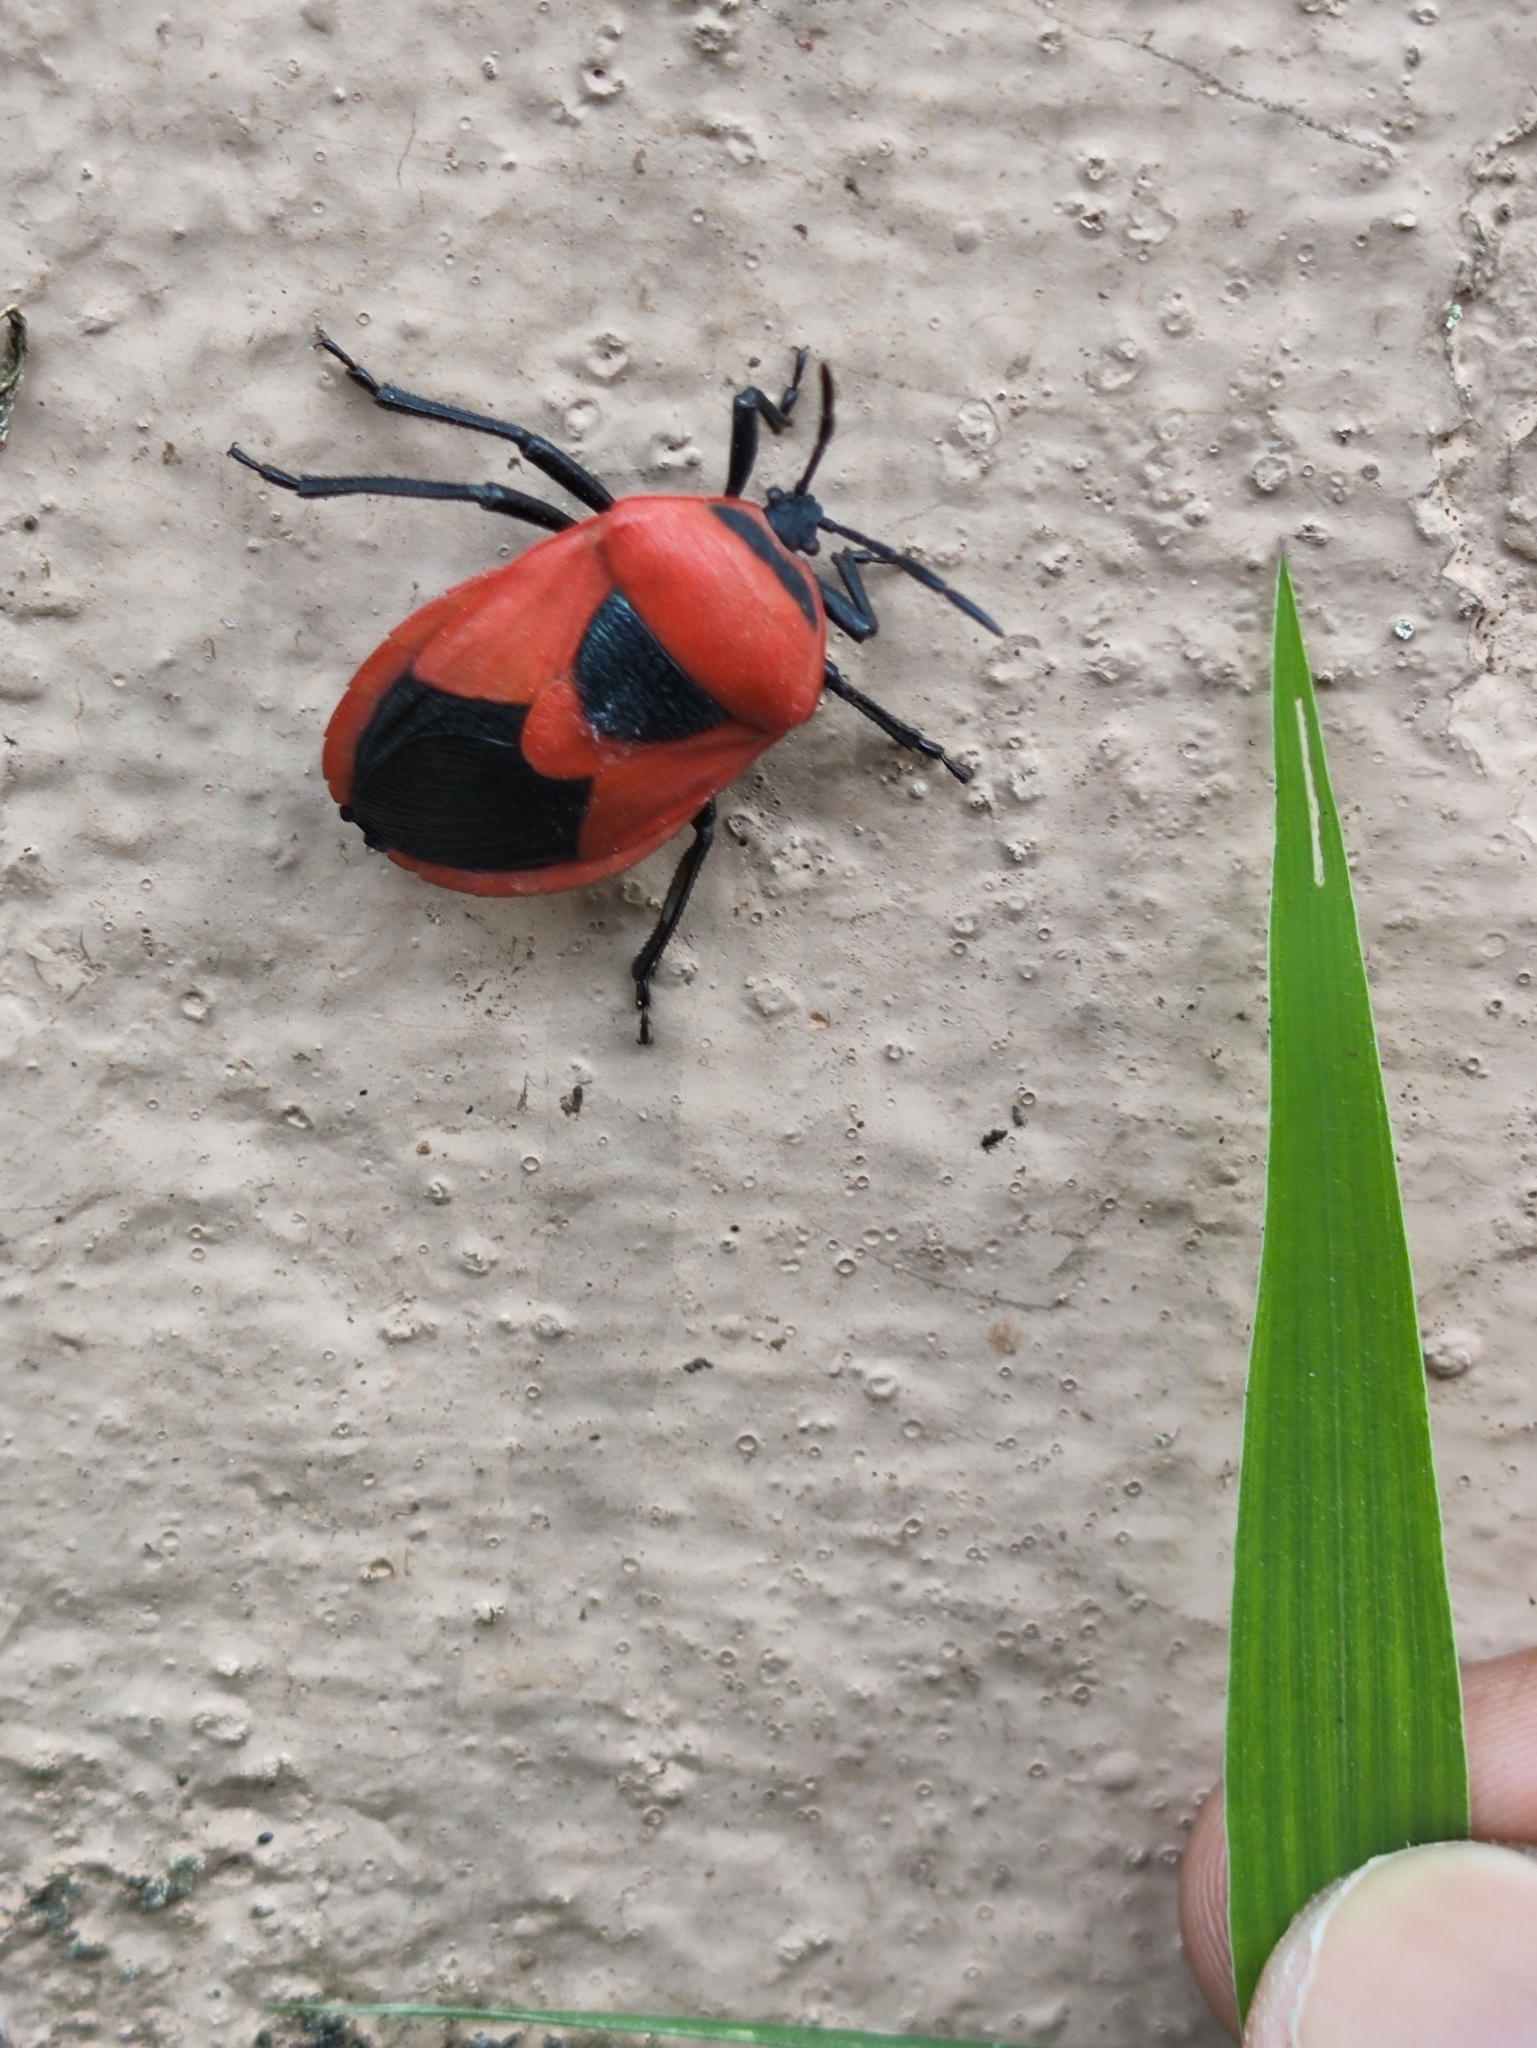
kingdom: Animalia
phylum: Arthropoda
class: Insecta
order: Hemiptera
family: Dinidoridae
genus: Coridius
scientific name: Coridius ianus
